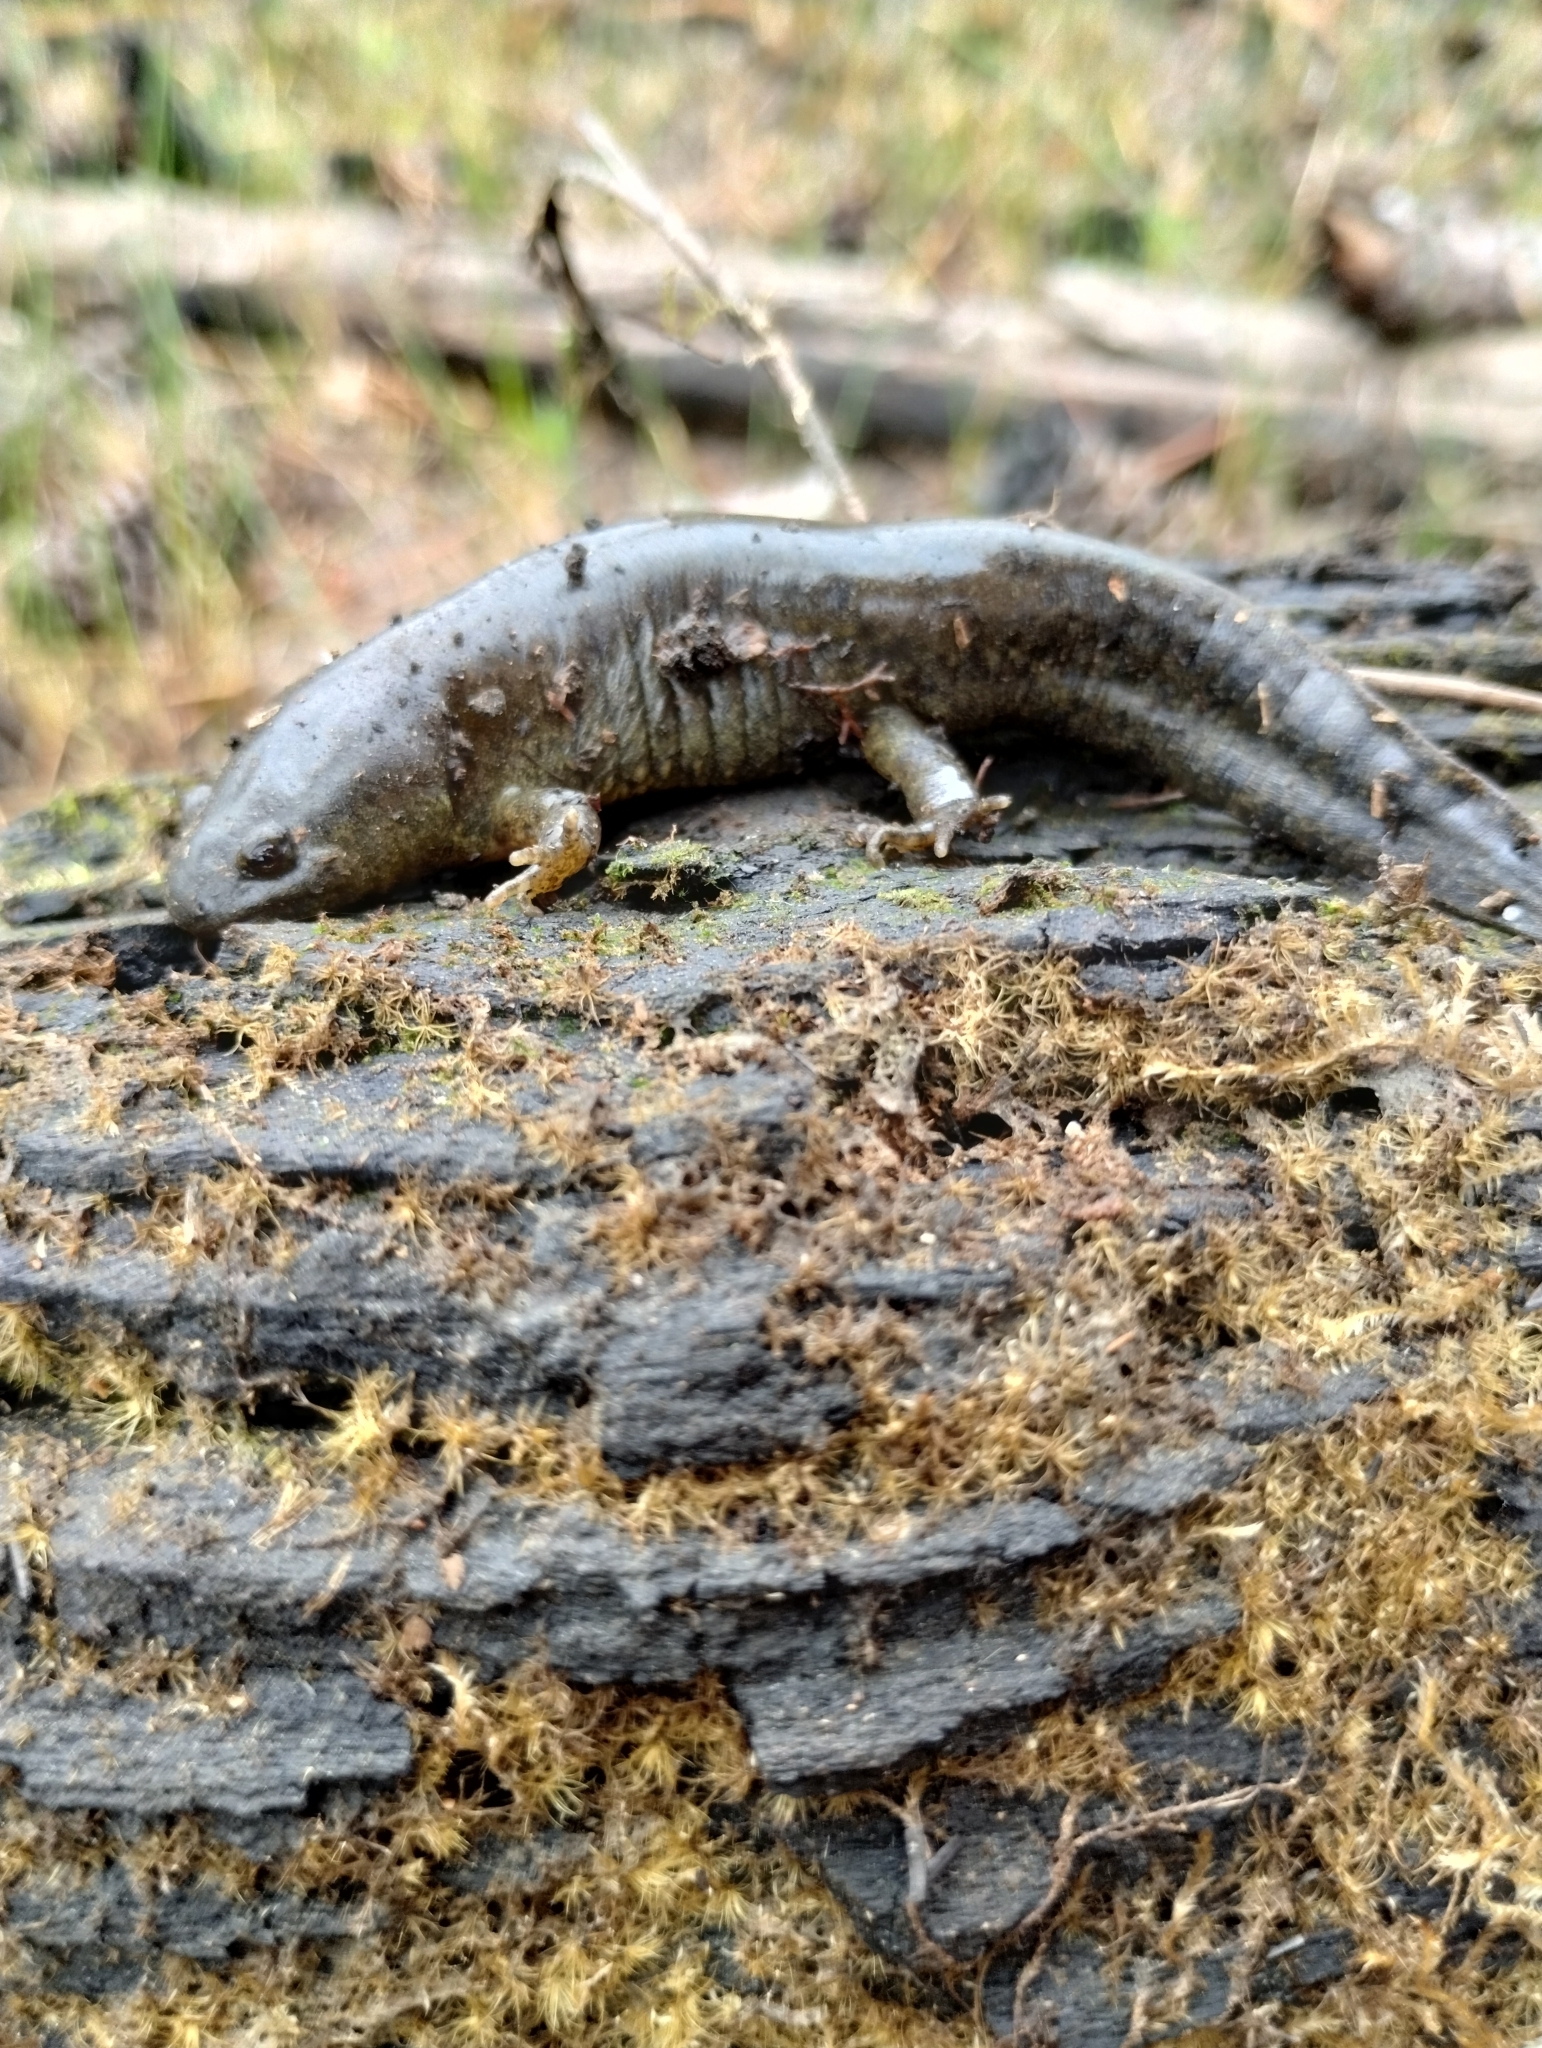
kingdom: Animalia
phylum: Chordata
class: Amphibia
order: Caudata
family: Ambystomatidae
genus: Ambystoma
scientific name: Ambystoma talpoideum
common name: Mole salamander
